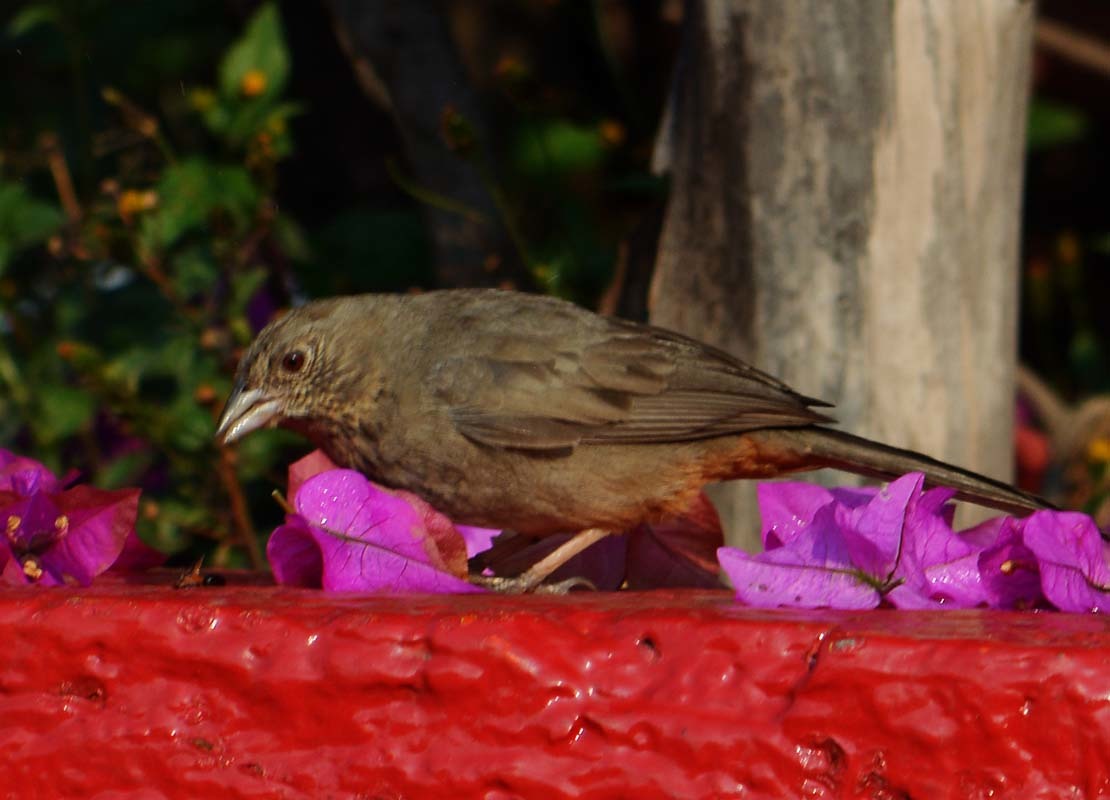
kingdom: Animalia
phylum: Chordata
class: Aves
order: Passeriformes
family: Passerellidae
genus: Melozone
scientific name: Melozone fusca
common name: Canyon towhee
